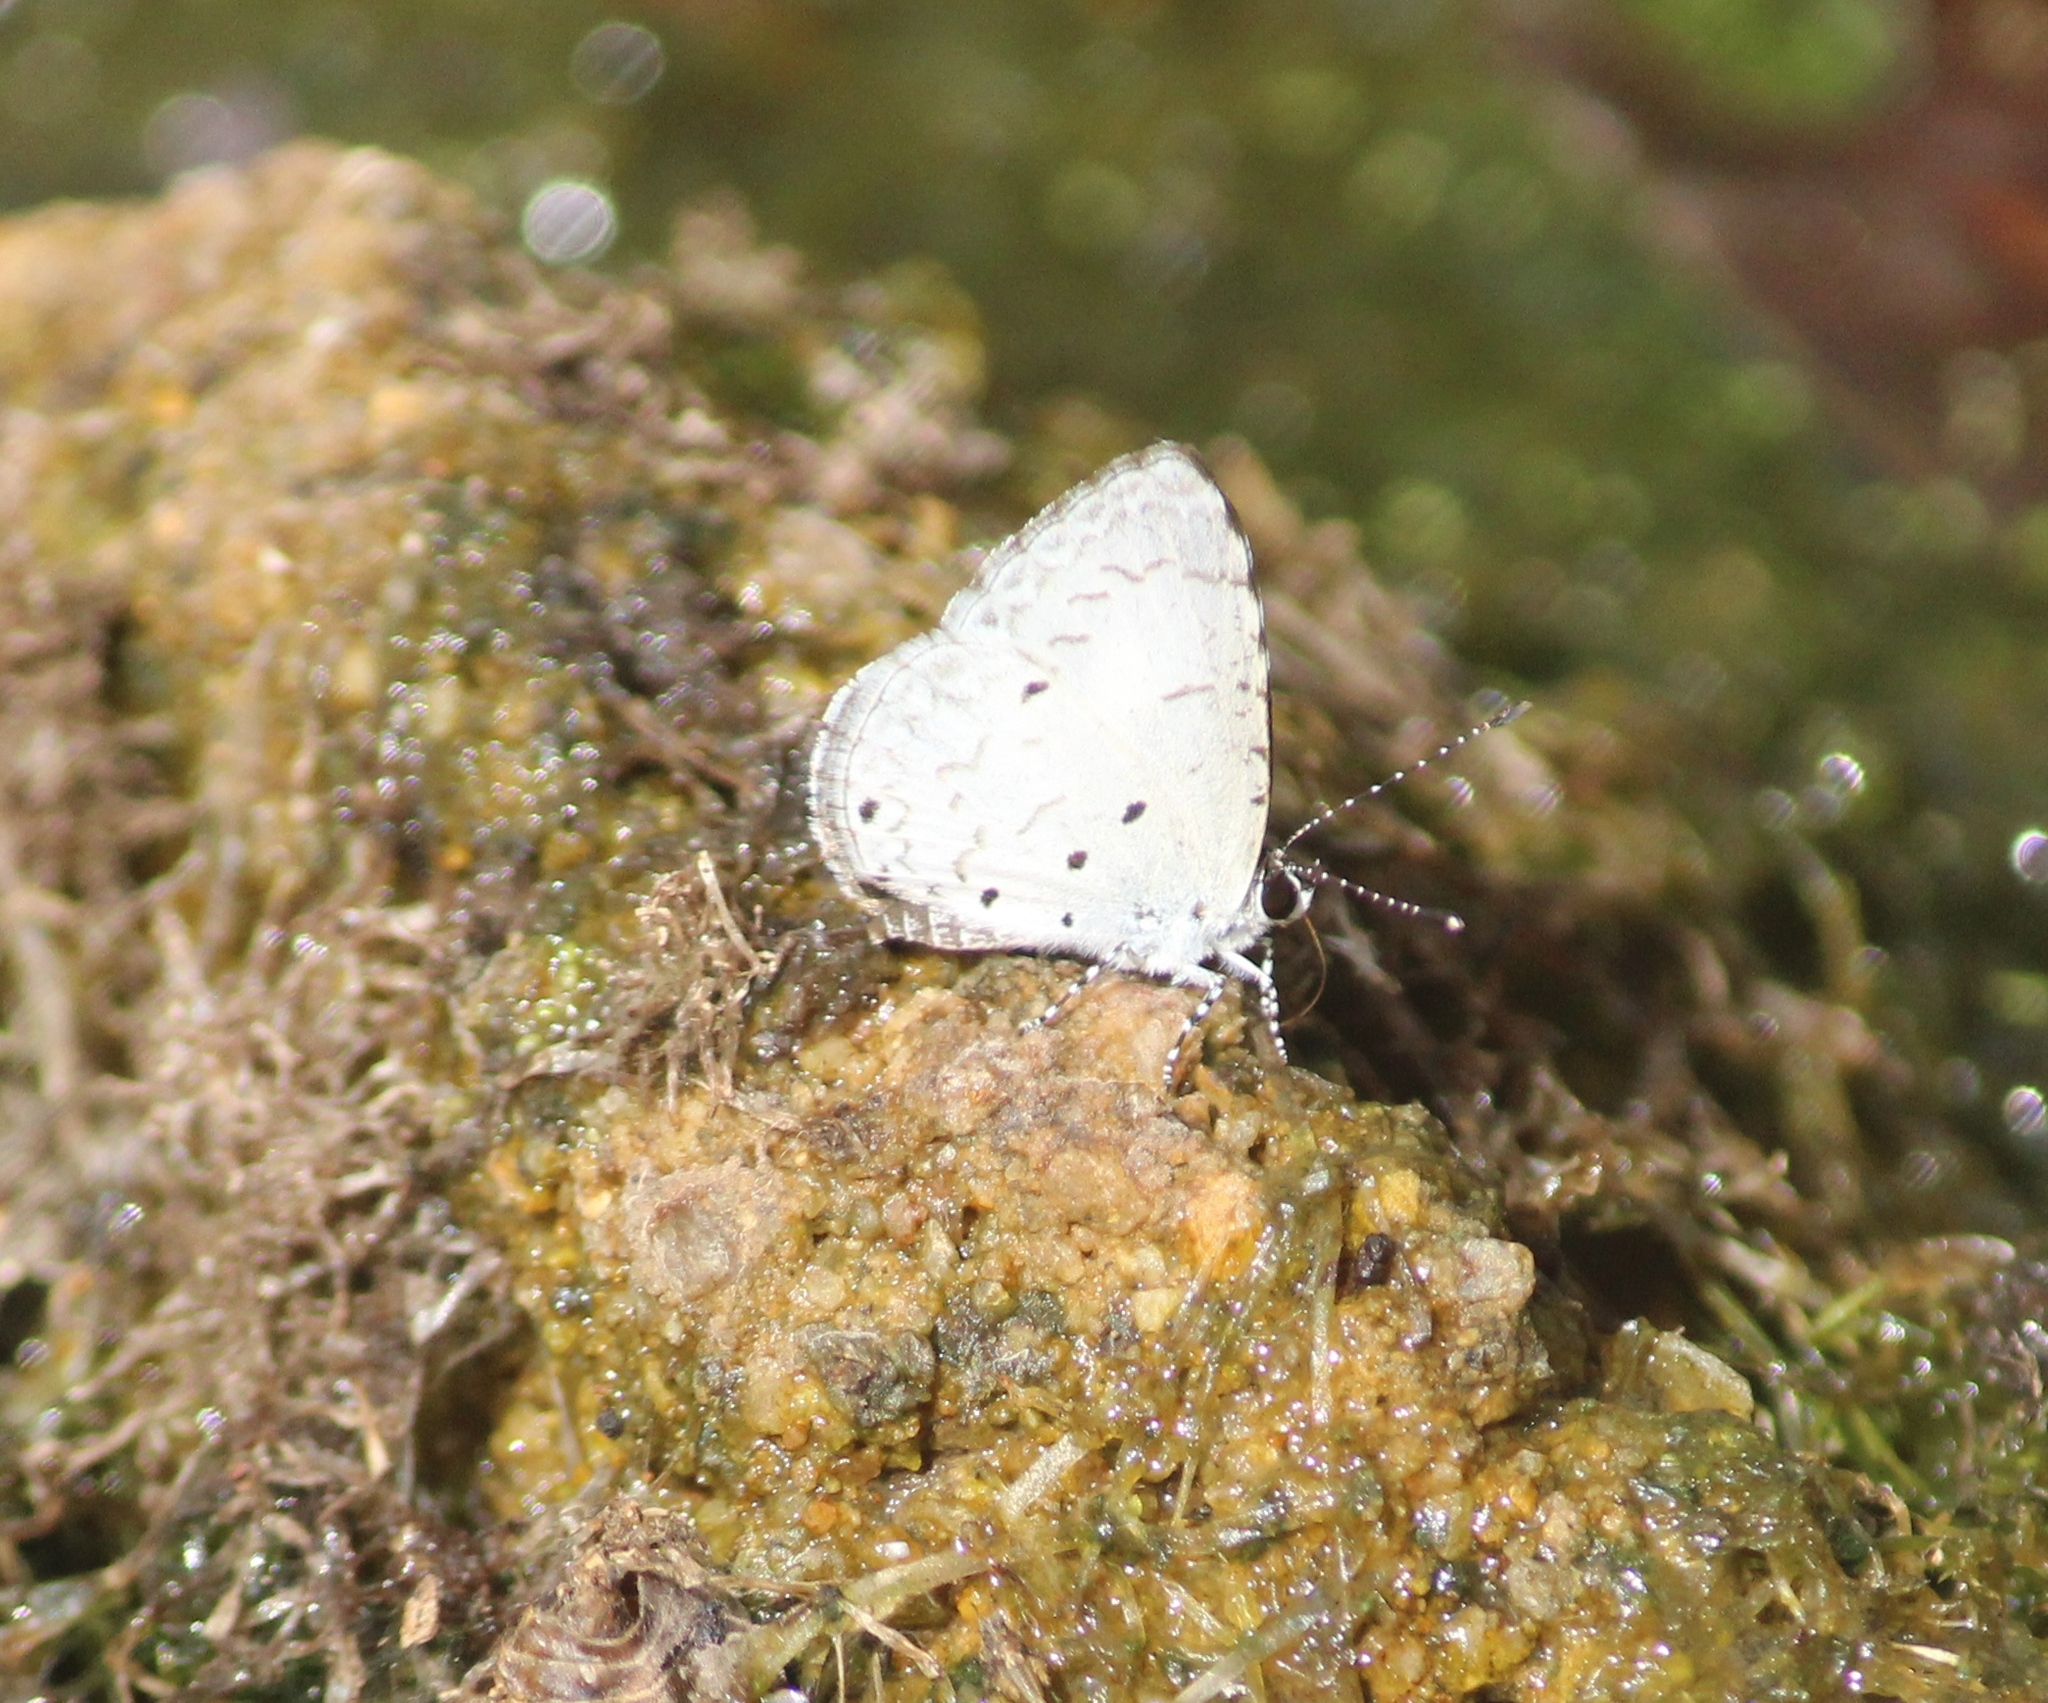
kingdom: Animalia
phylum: Arthropoda
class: Insecta
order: Lepidoptera
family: Lycaenidae
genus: Megisba
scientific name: Megisba malaya
